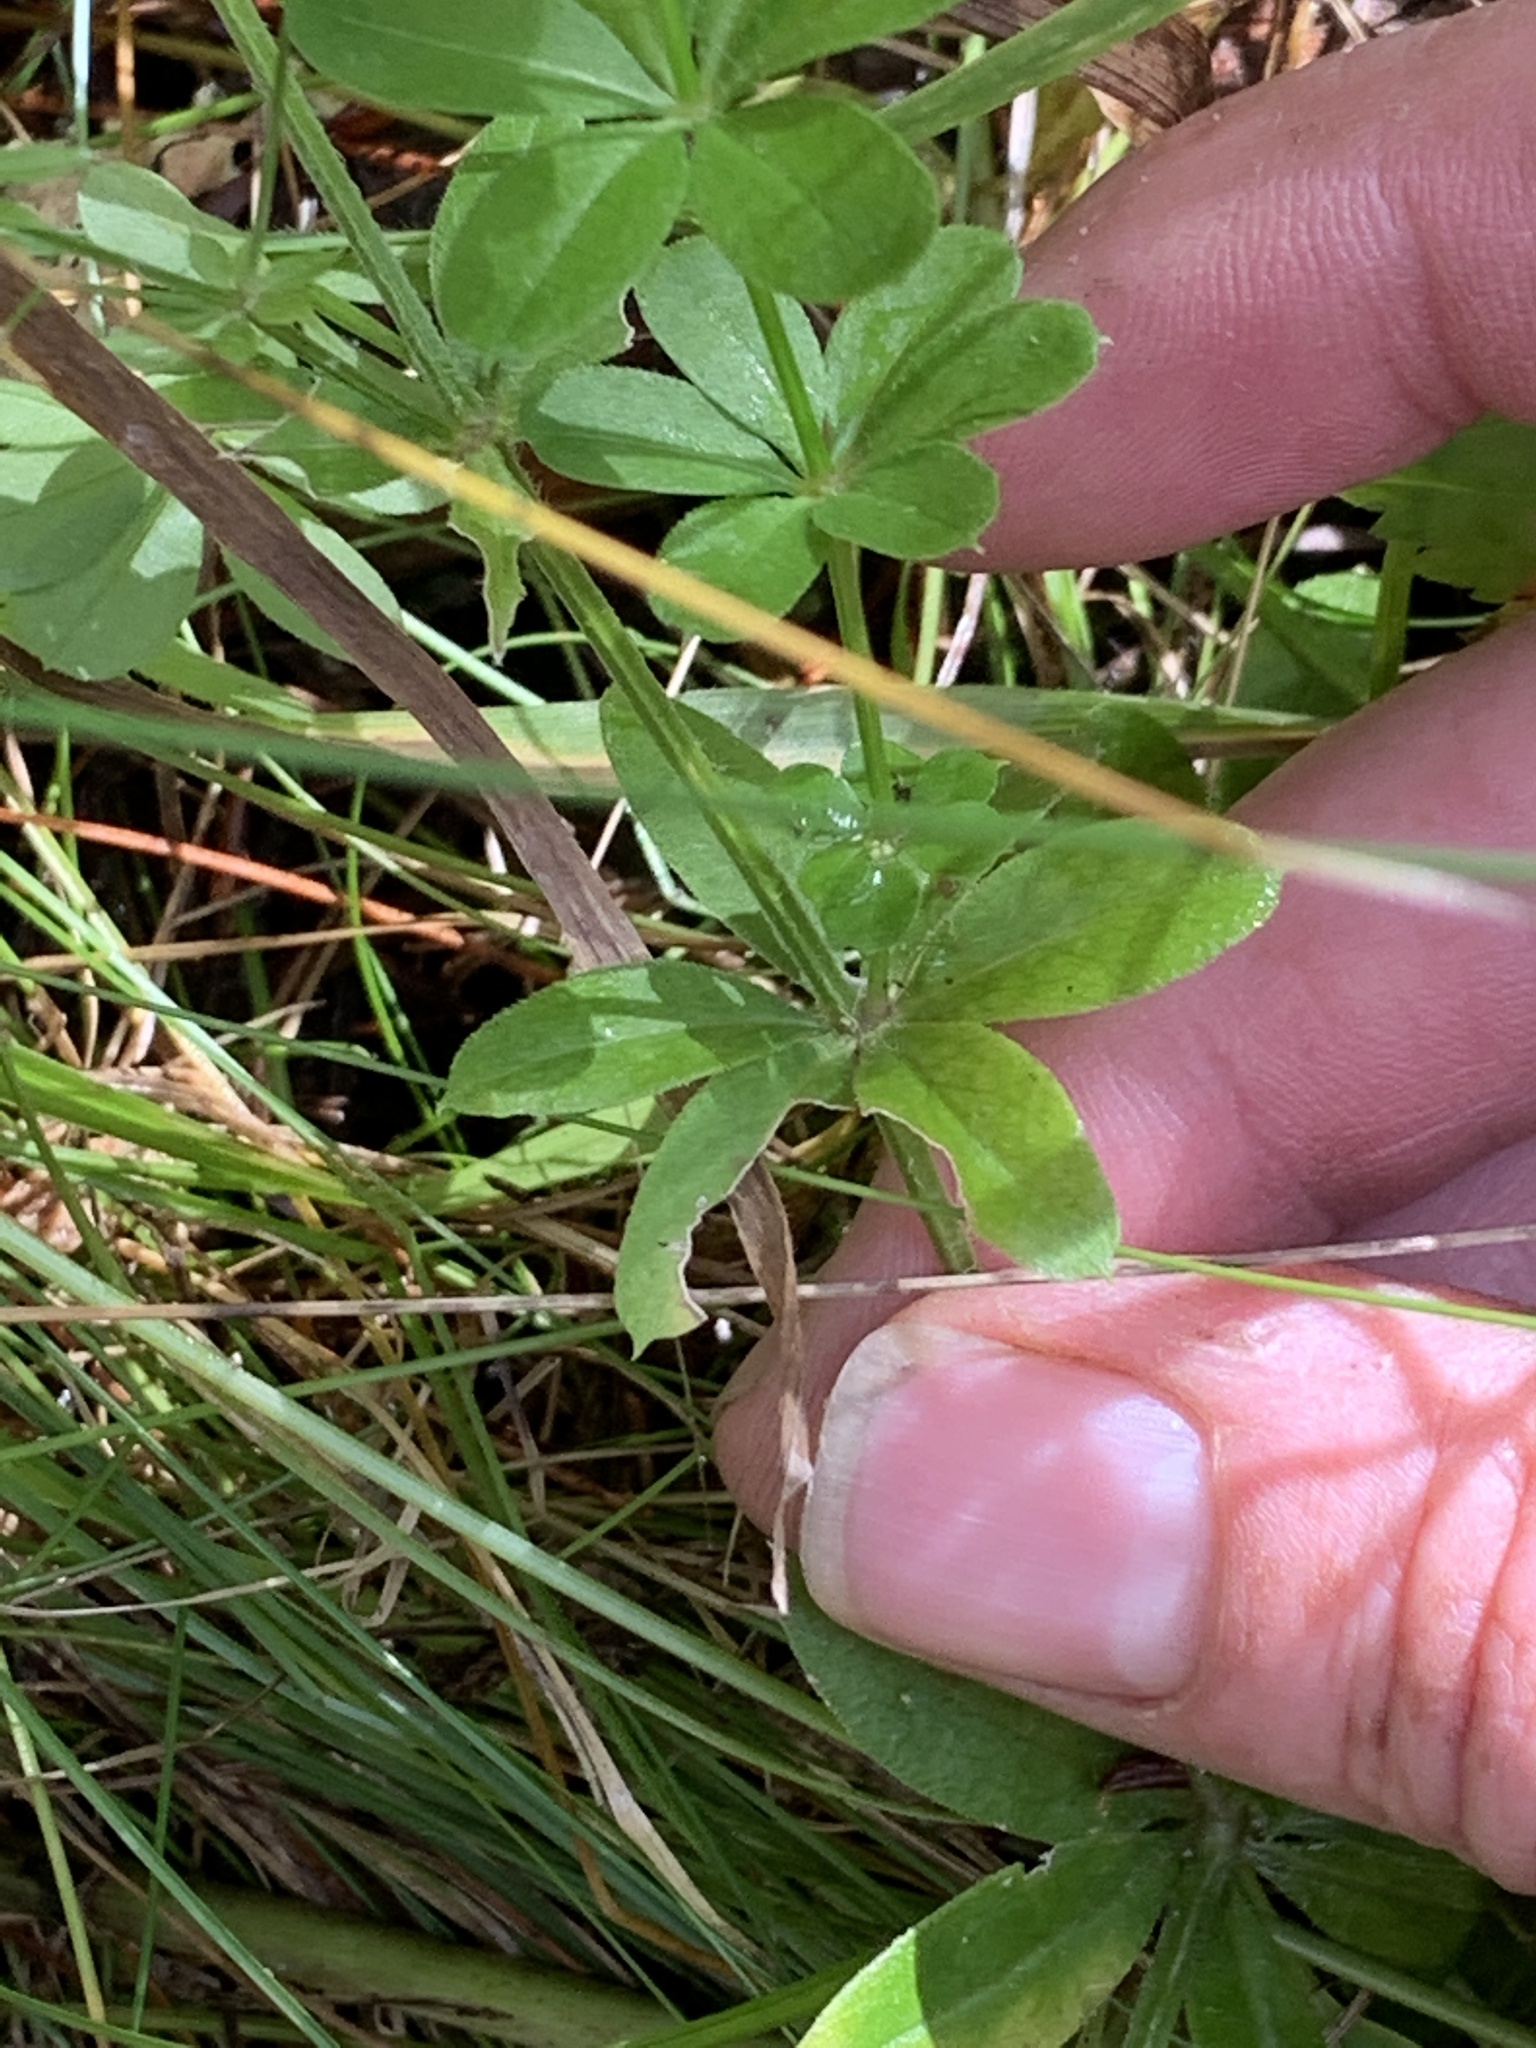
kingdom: Plantae
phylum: Tracheophyta
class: Magnoliopsida
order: Gentianales
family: Rubiaceae
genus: Galium
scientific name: Galium triflorum
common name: Fragrant bedstraw
